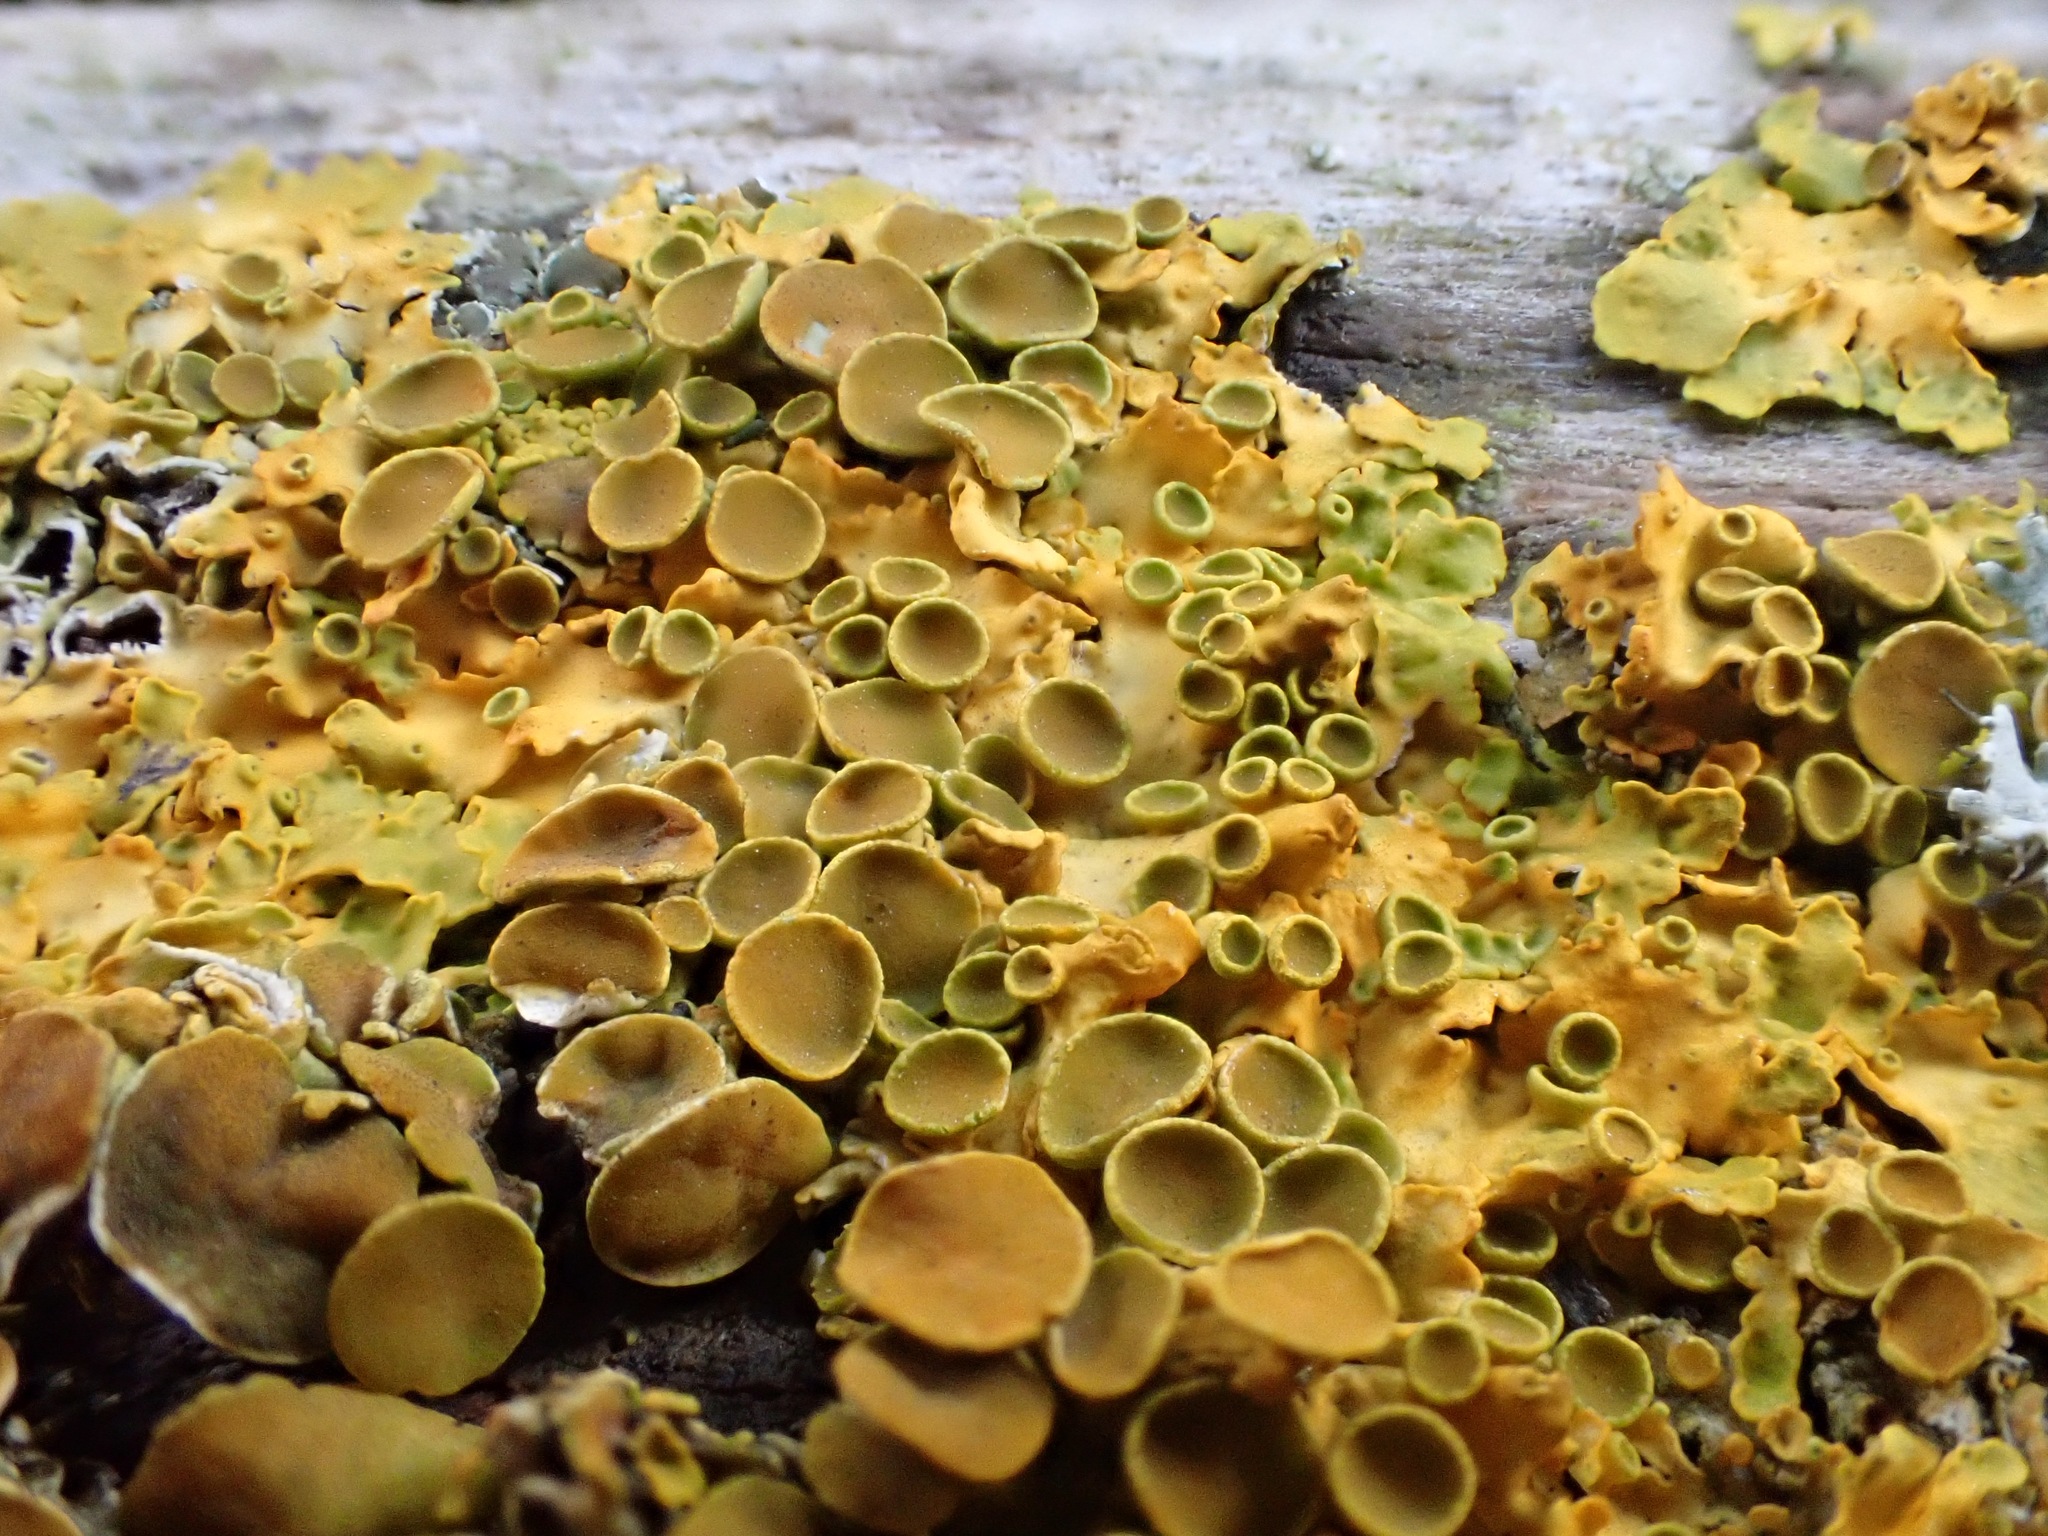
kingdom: Fungi
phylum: Ascomycota
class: Lecanoromycetes
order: Teloschistales
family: Teloschistaceae
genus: Xanthoria
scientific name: Xanthoria parietina
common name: Common orange lichen
